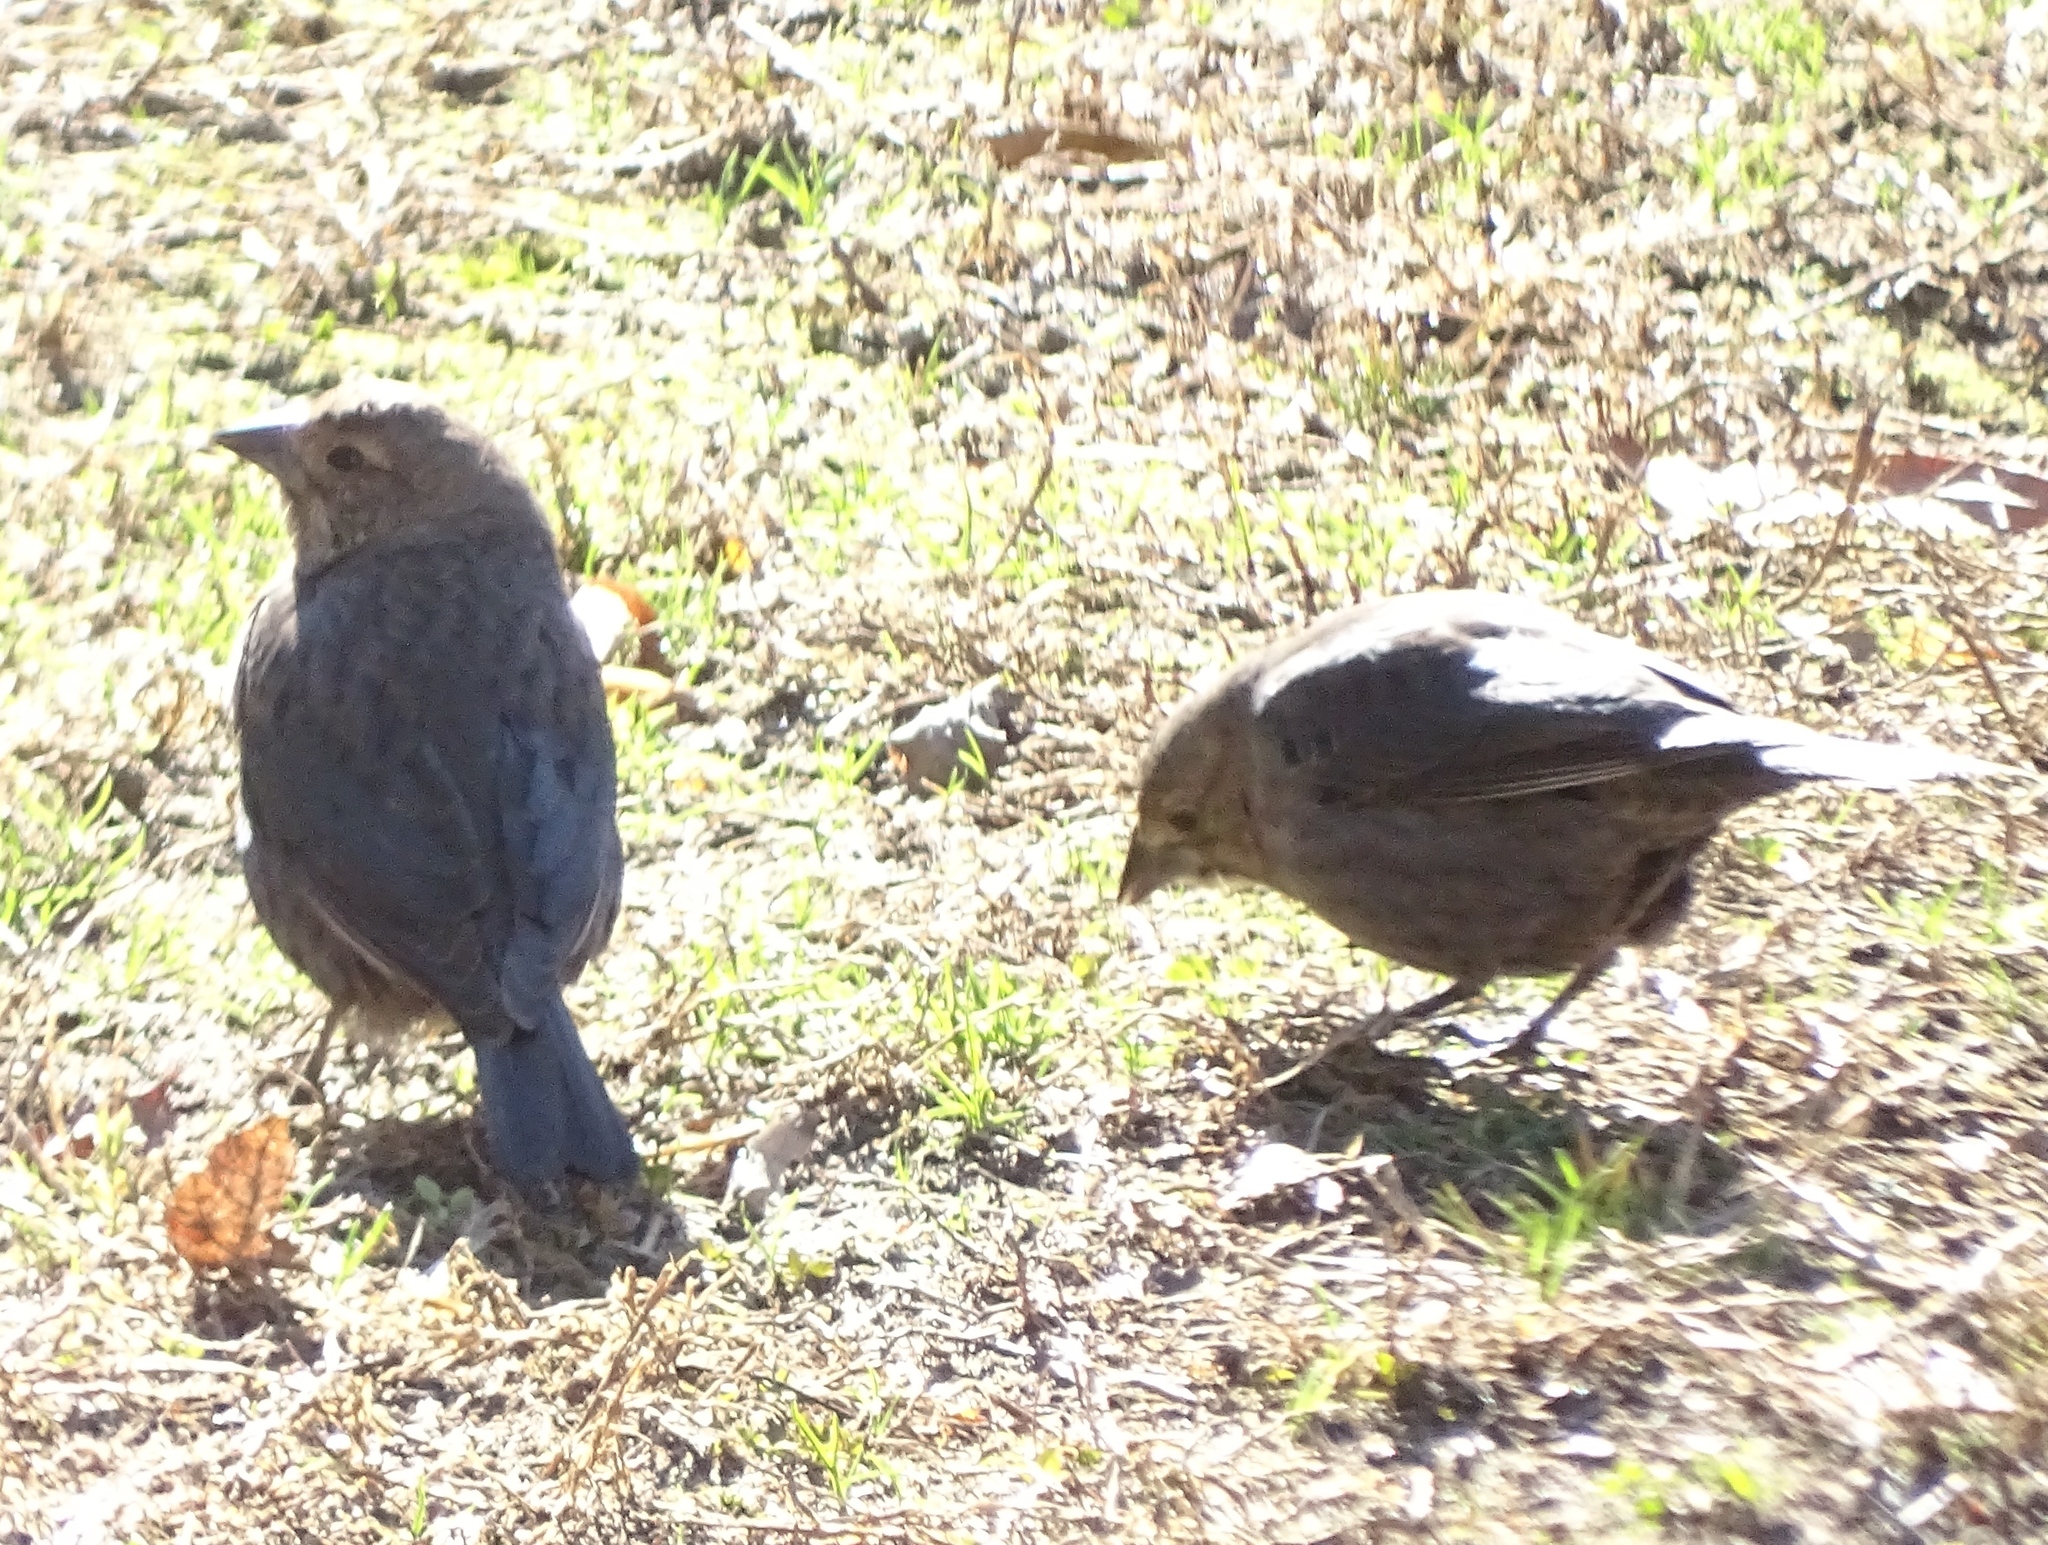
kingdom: Animalia
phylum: Chordata
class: Aves
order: Passeriformes
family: Icteridae
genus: Molothrus
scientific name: Molothrus ater
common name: Brown-headed cowbird
